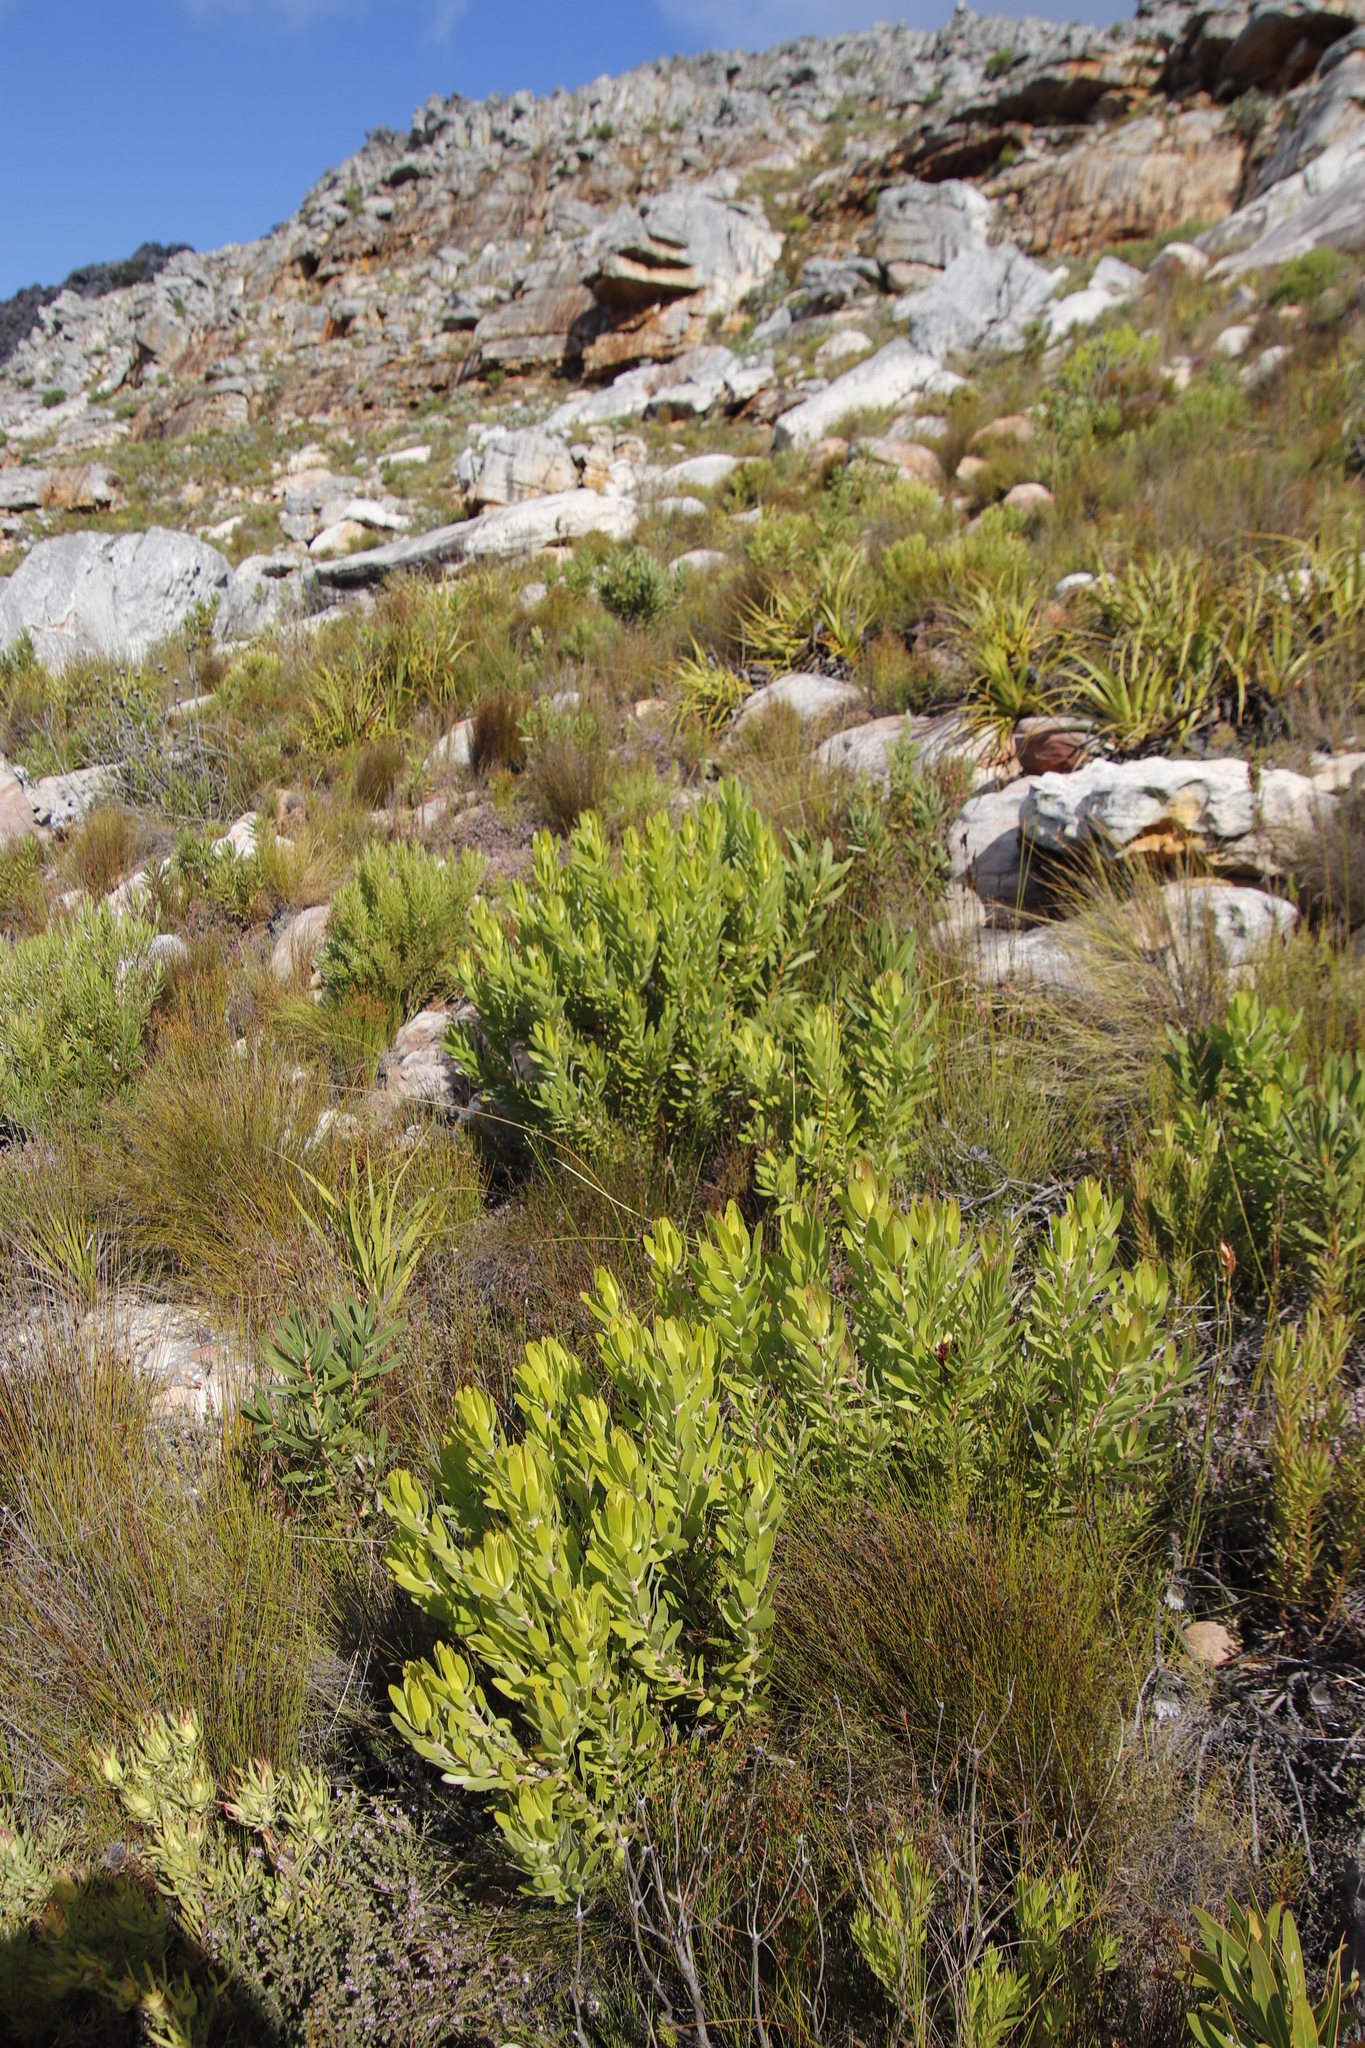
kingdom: Plantae
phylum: Tracheophyta
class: Magnoliopsida
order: Proteales
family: Proteaceae
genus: Leucadendron
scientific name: Leucadendron laureolum
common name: Golden sunshinebush
